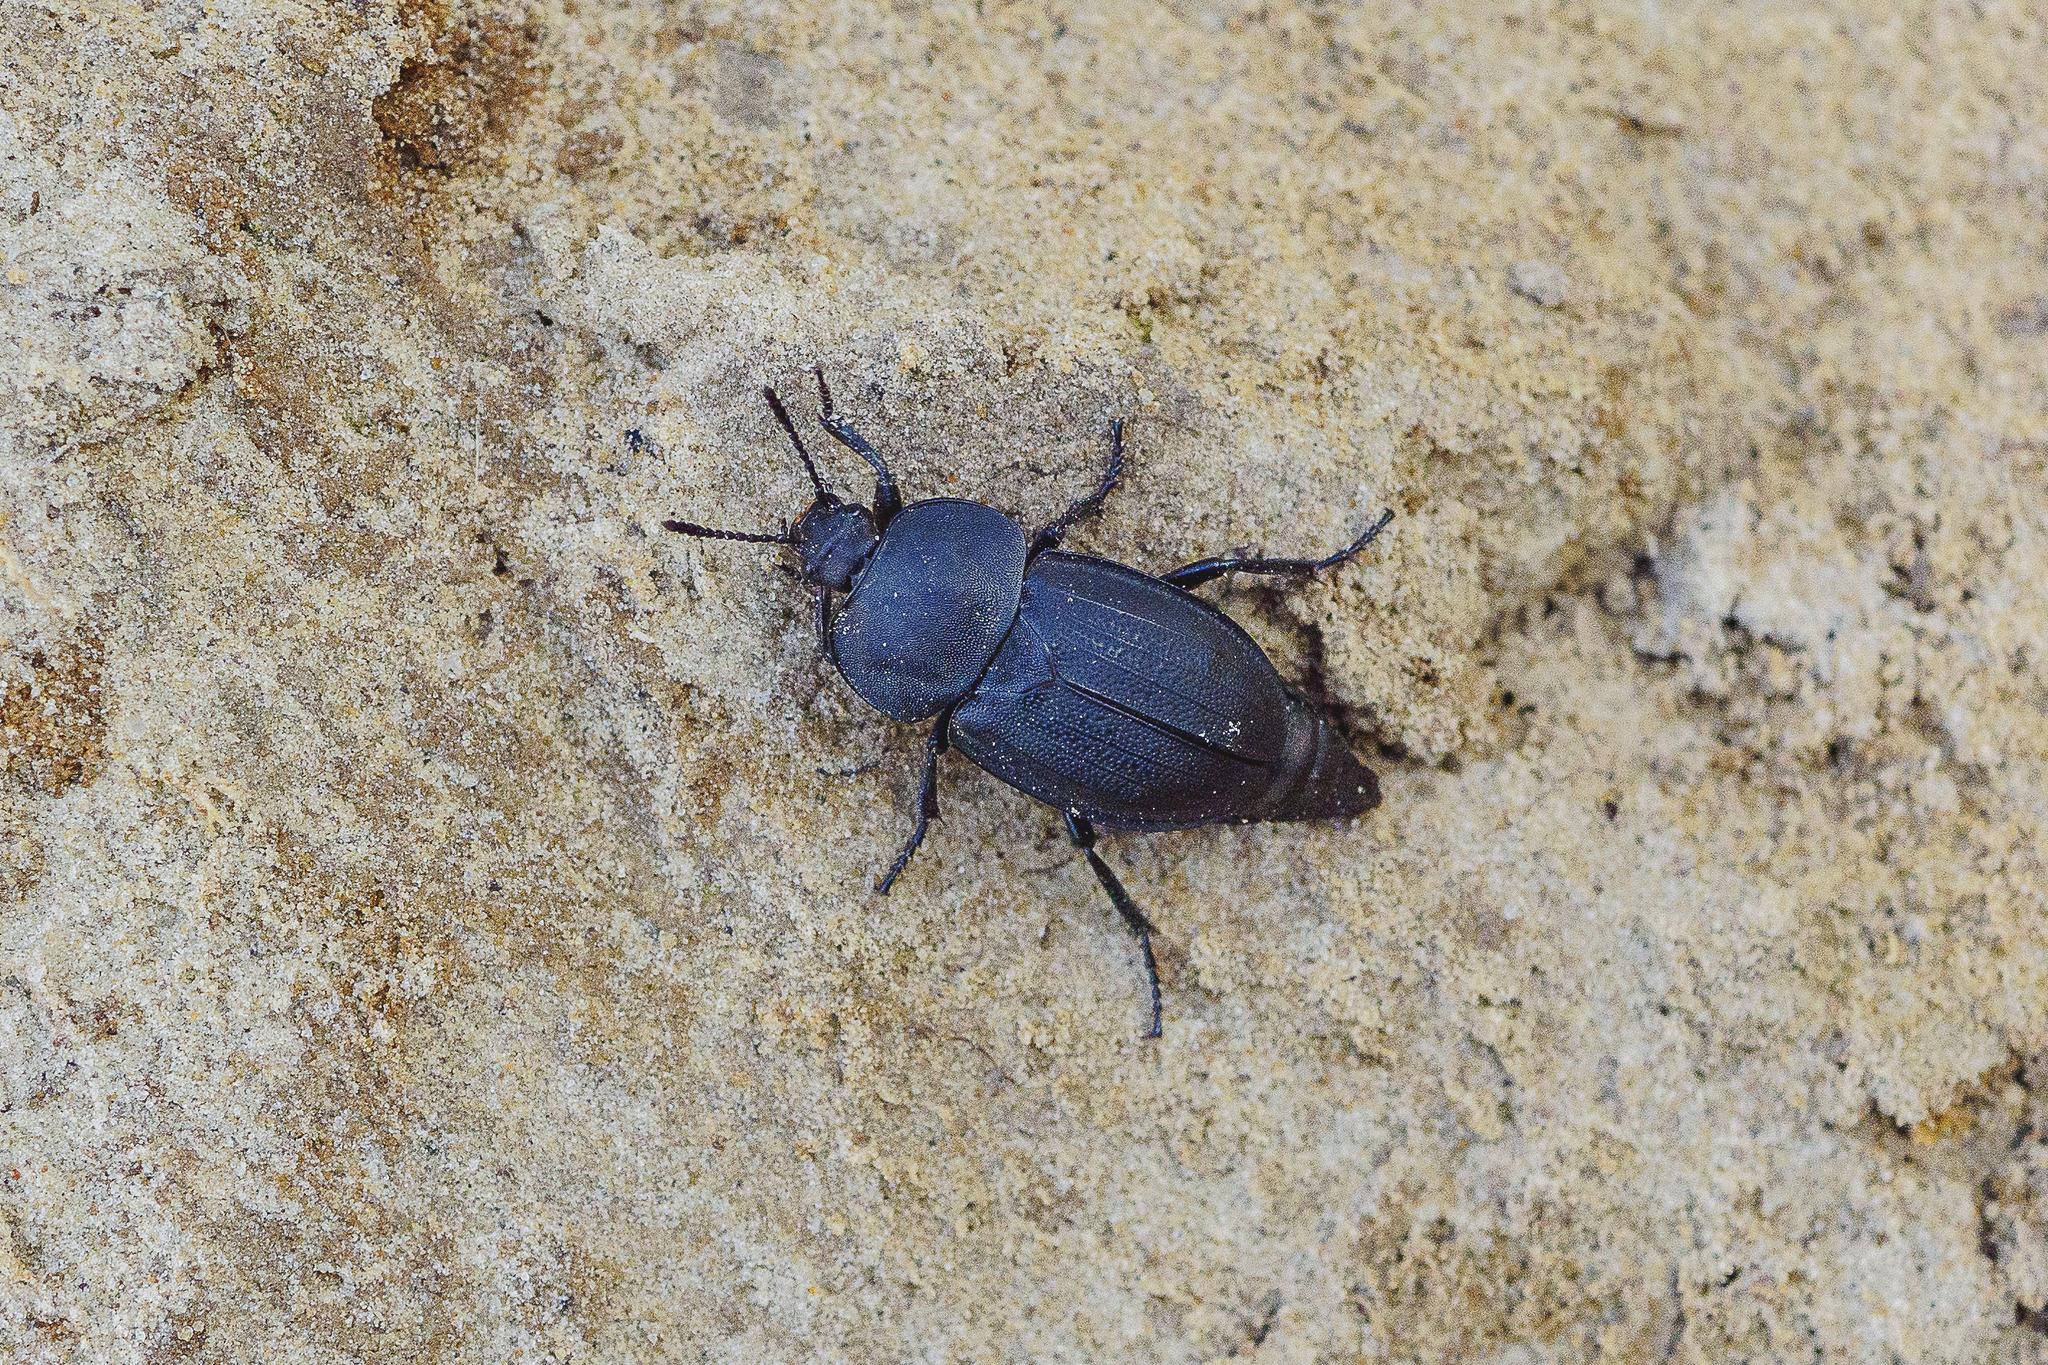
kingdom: Animalia
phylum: Arthropoda
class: Insecta
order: Coleoptera
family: Staphylinidae
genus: Silpha
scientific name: Silpha obscura
